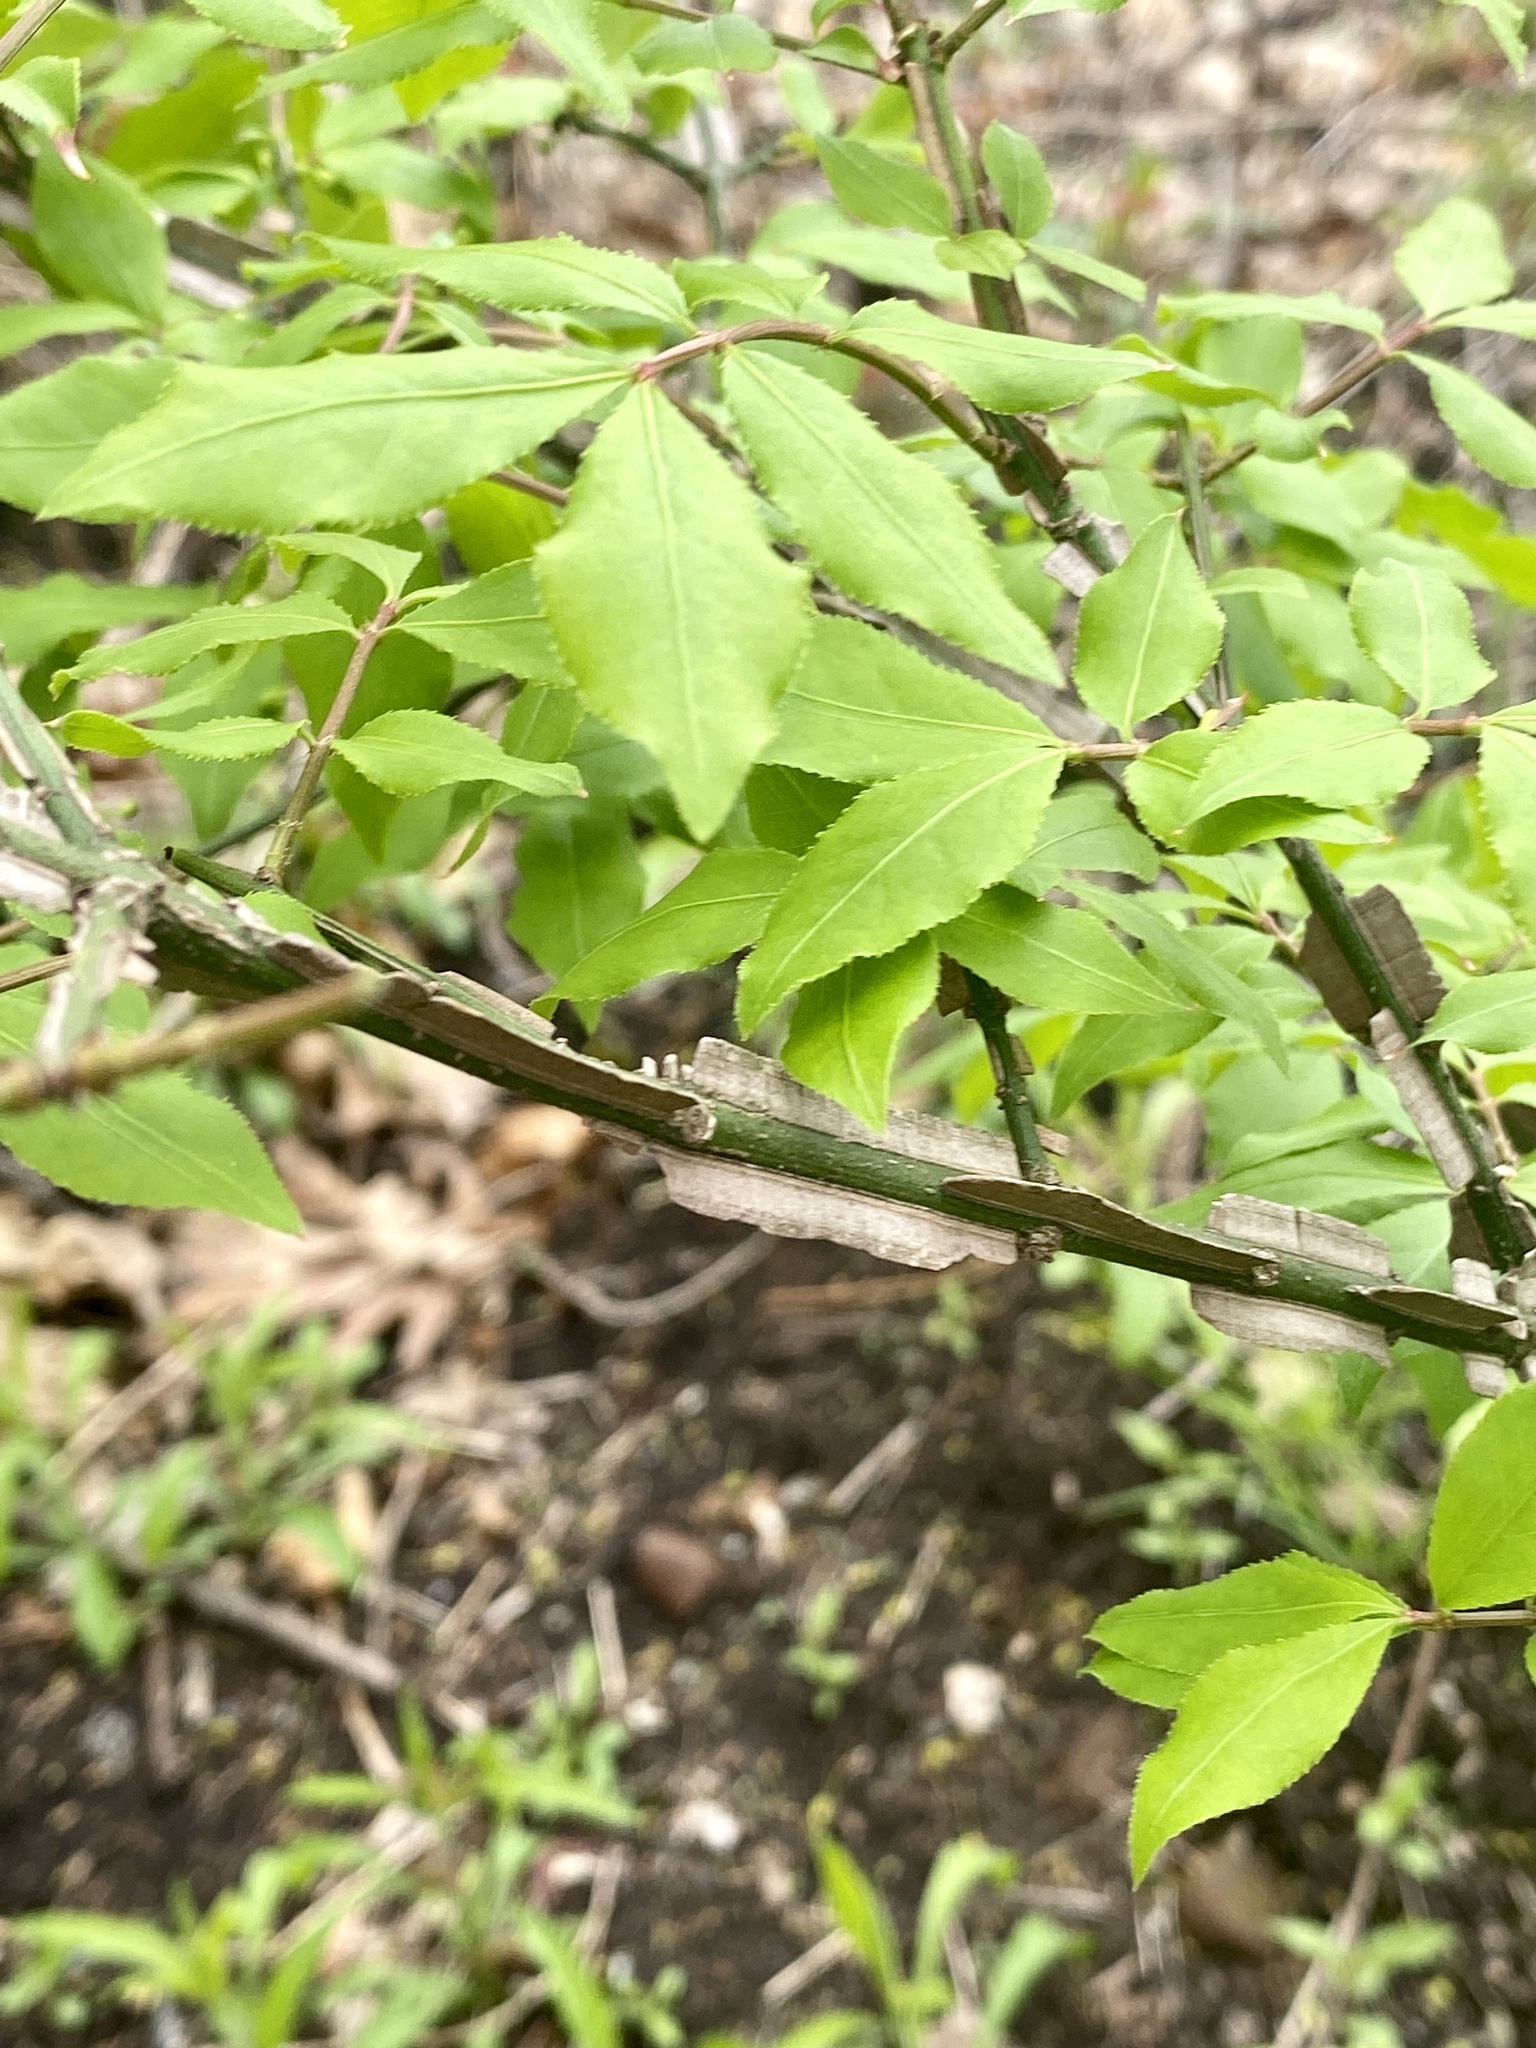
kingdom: Plantae
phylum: Tracheophyta
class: Magnoliopsida
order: Celastrales
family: Celastraceae
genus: Euonymus
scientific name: Euonymus alatus
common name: Winged euonymus
